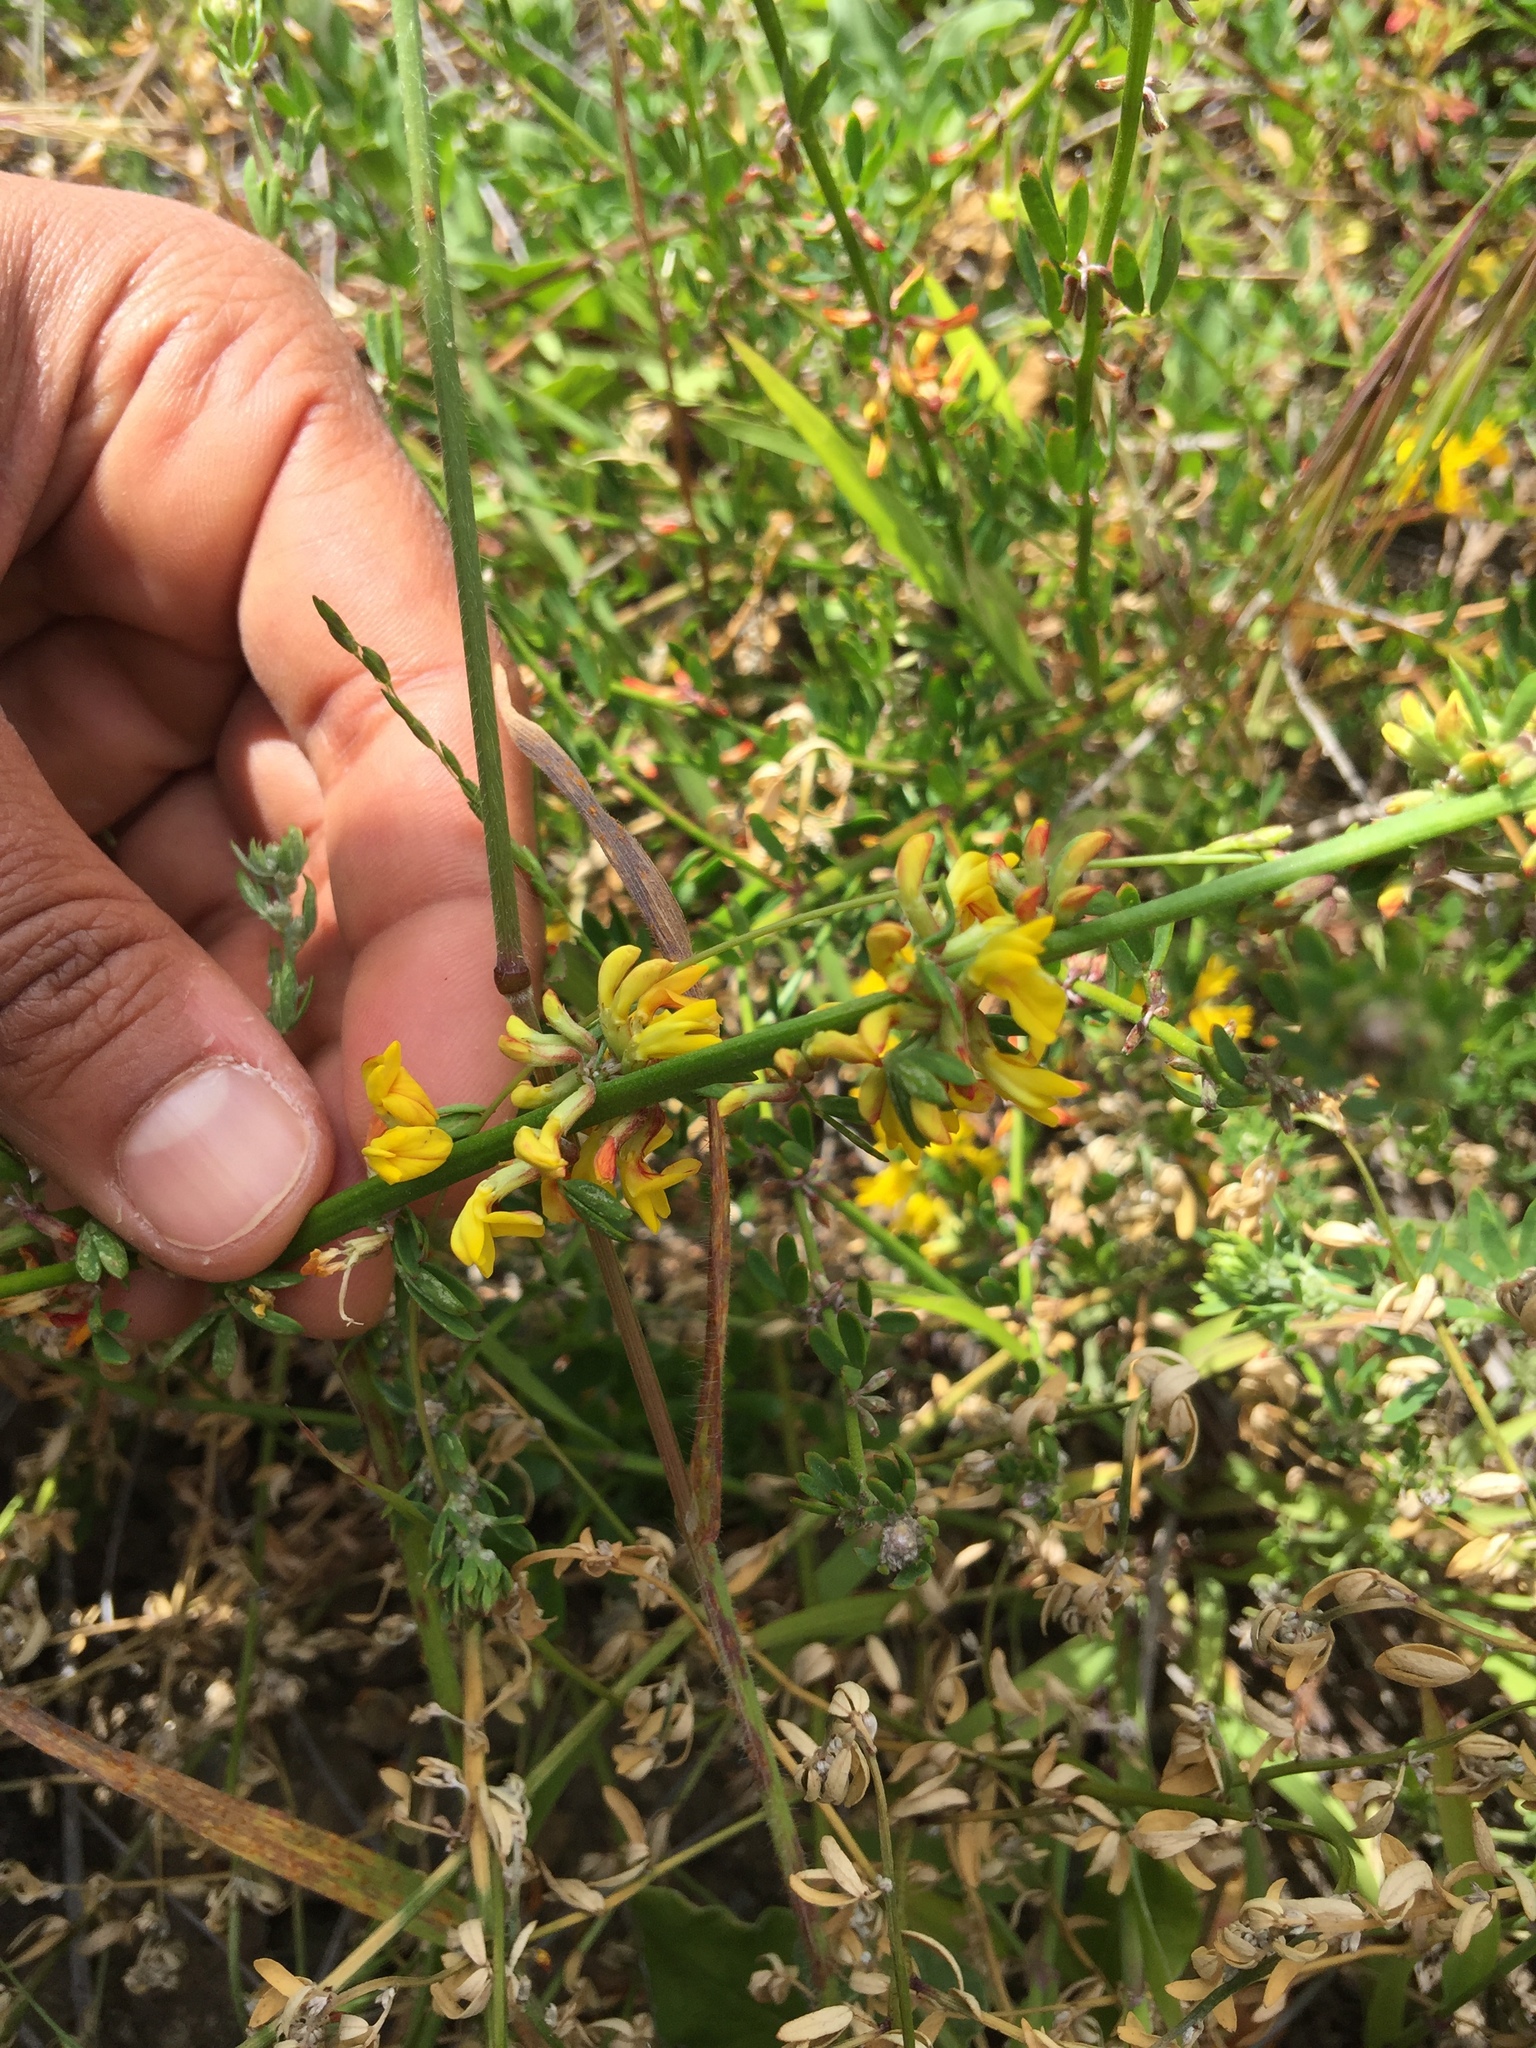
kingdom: Plantae
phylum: Tracheophyta
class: Magnoliopsida
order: Fabales
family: Fabaceae
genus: Acmispon
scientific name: Acmispon glaber
